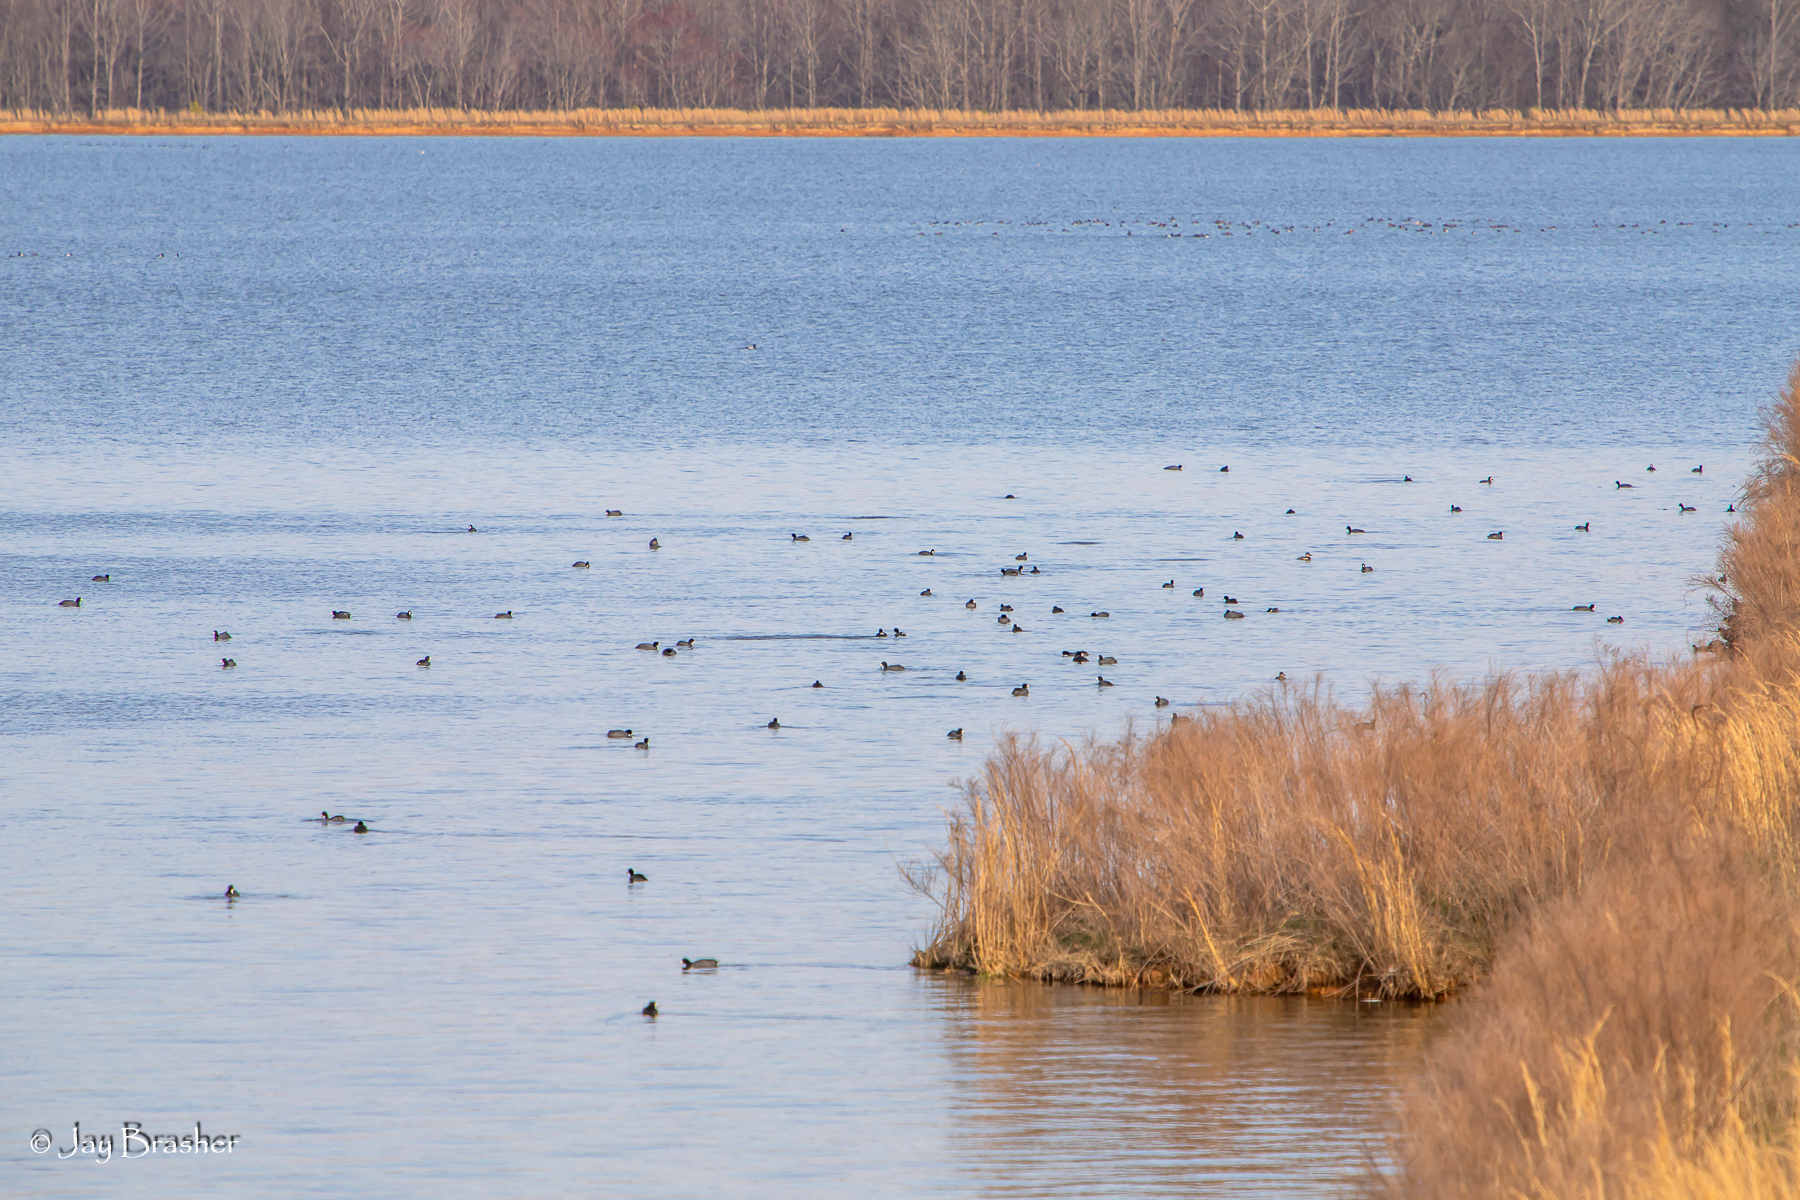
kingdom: Animalia
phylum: Chordata
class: Aves
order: Gruiformes
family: Rallidae
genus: Fulica
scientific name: Fulica americana
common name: American coot
